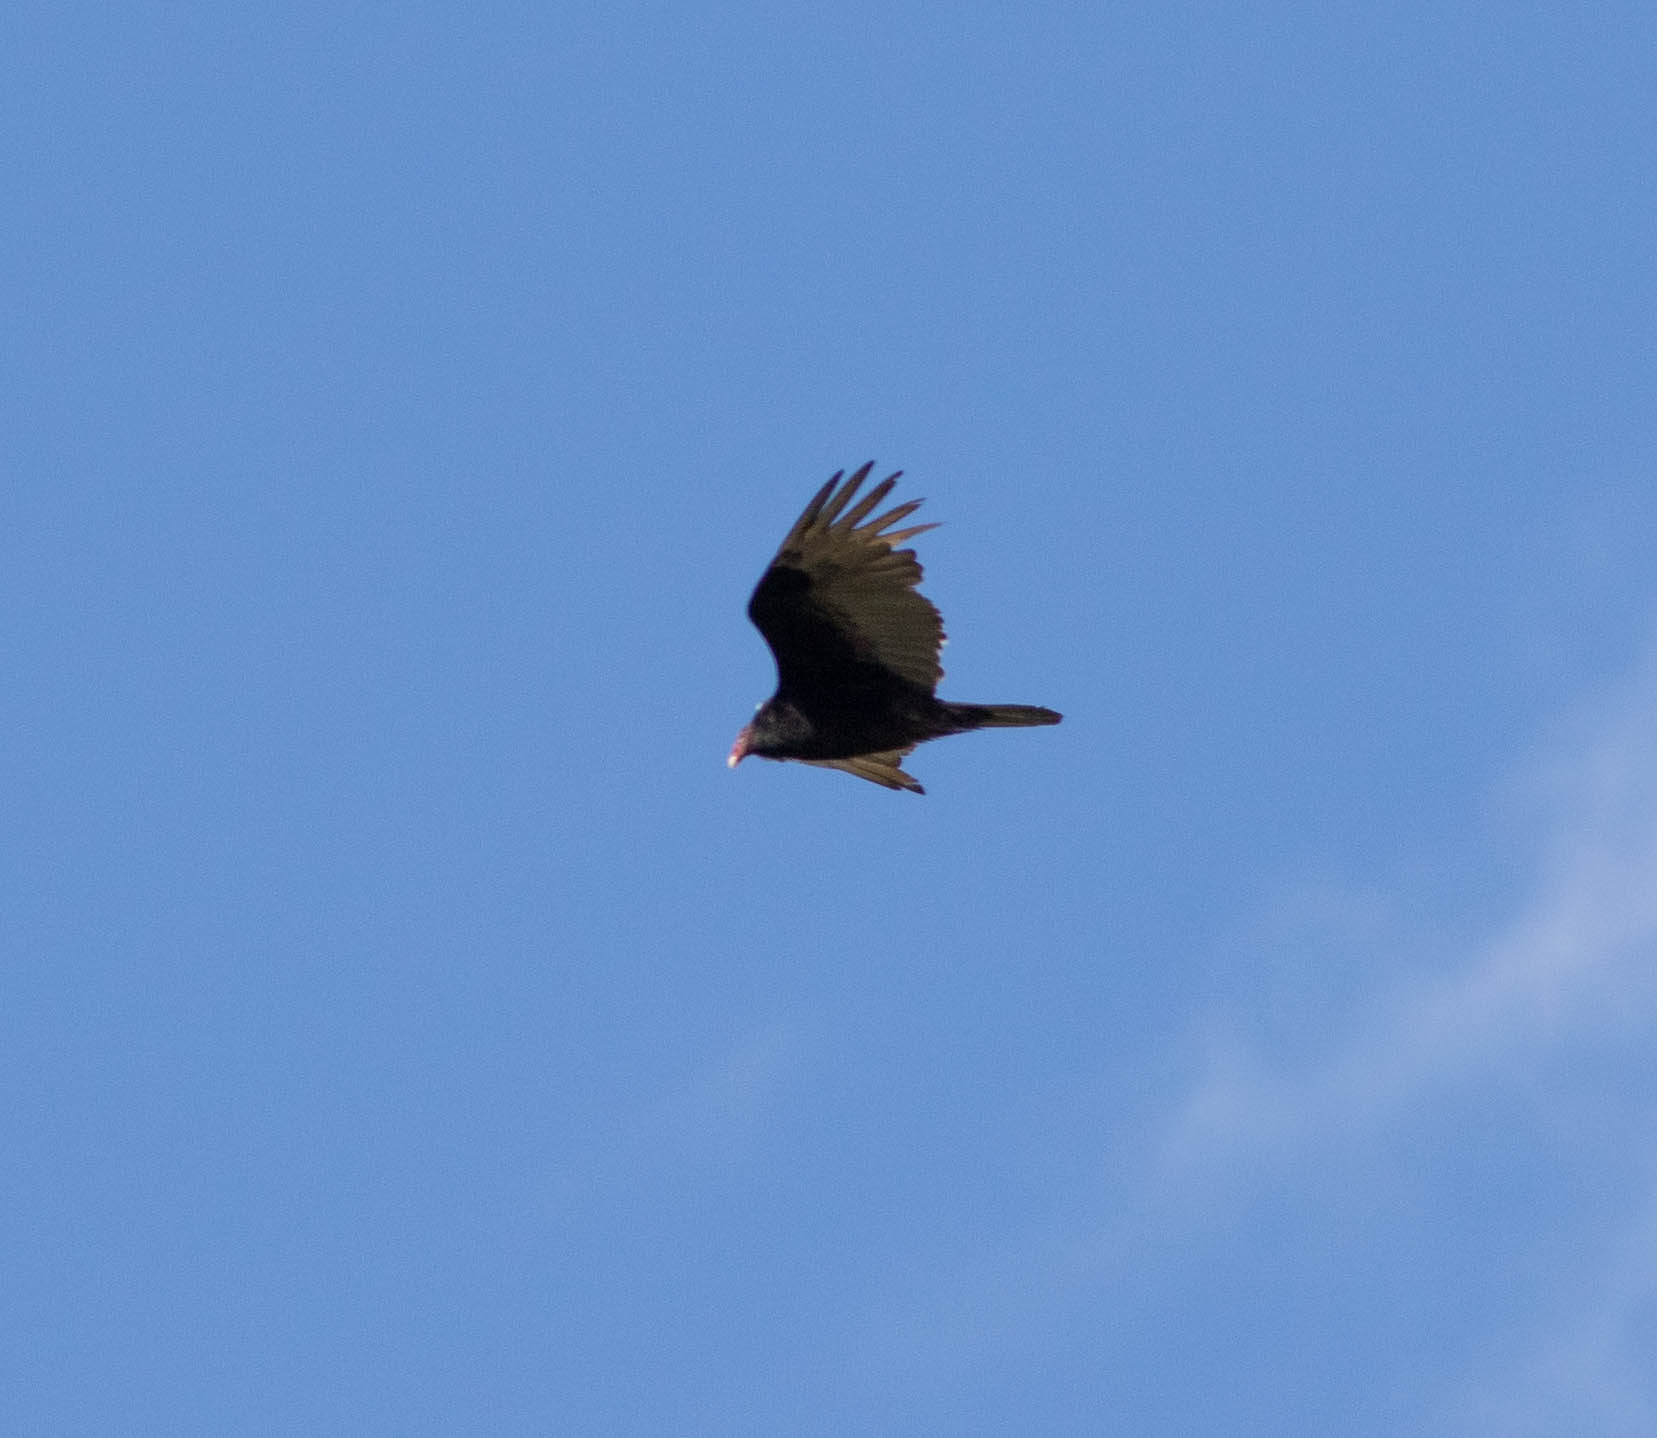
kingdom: Animalia
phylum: Chordata
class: Aves
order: Accipitriformes
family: Cathartidae
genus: Cathartes
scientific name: Cathartes aura
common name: Turkey vulture
